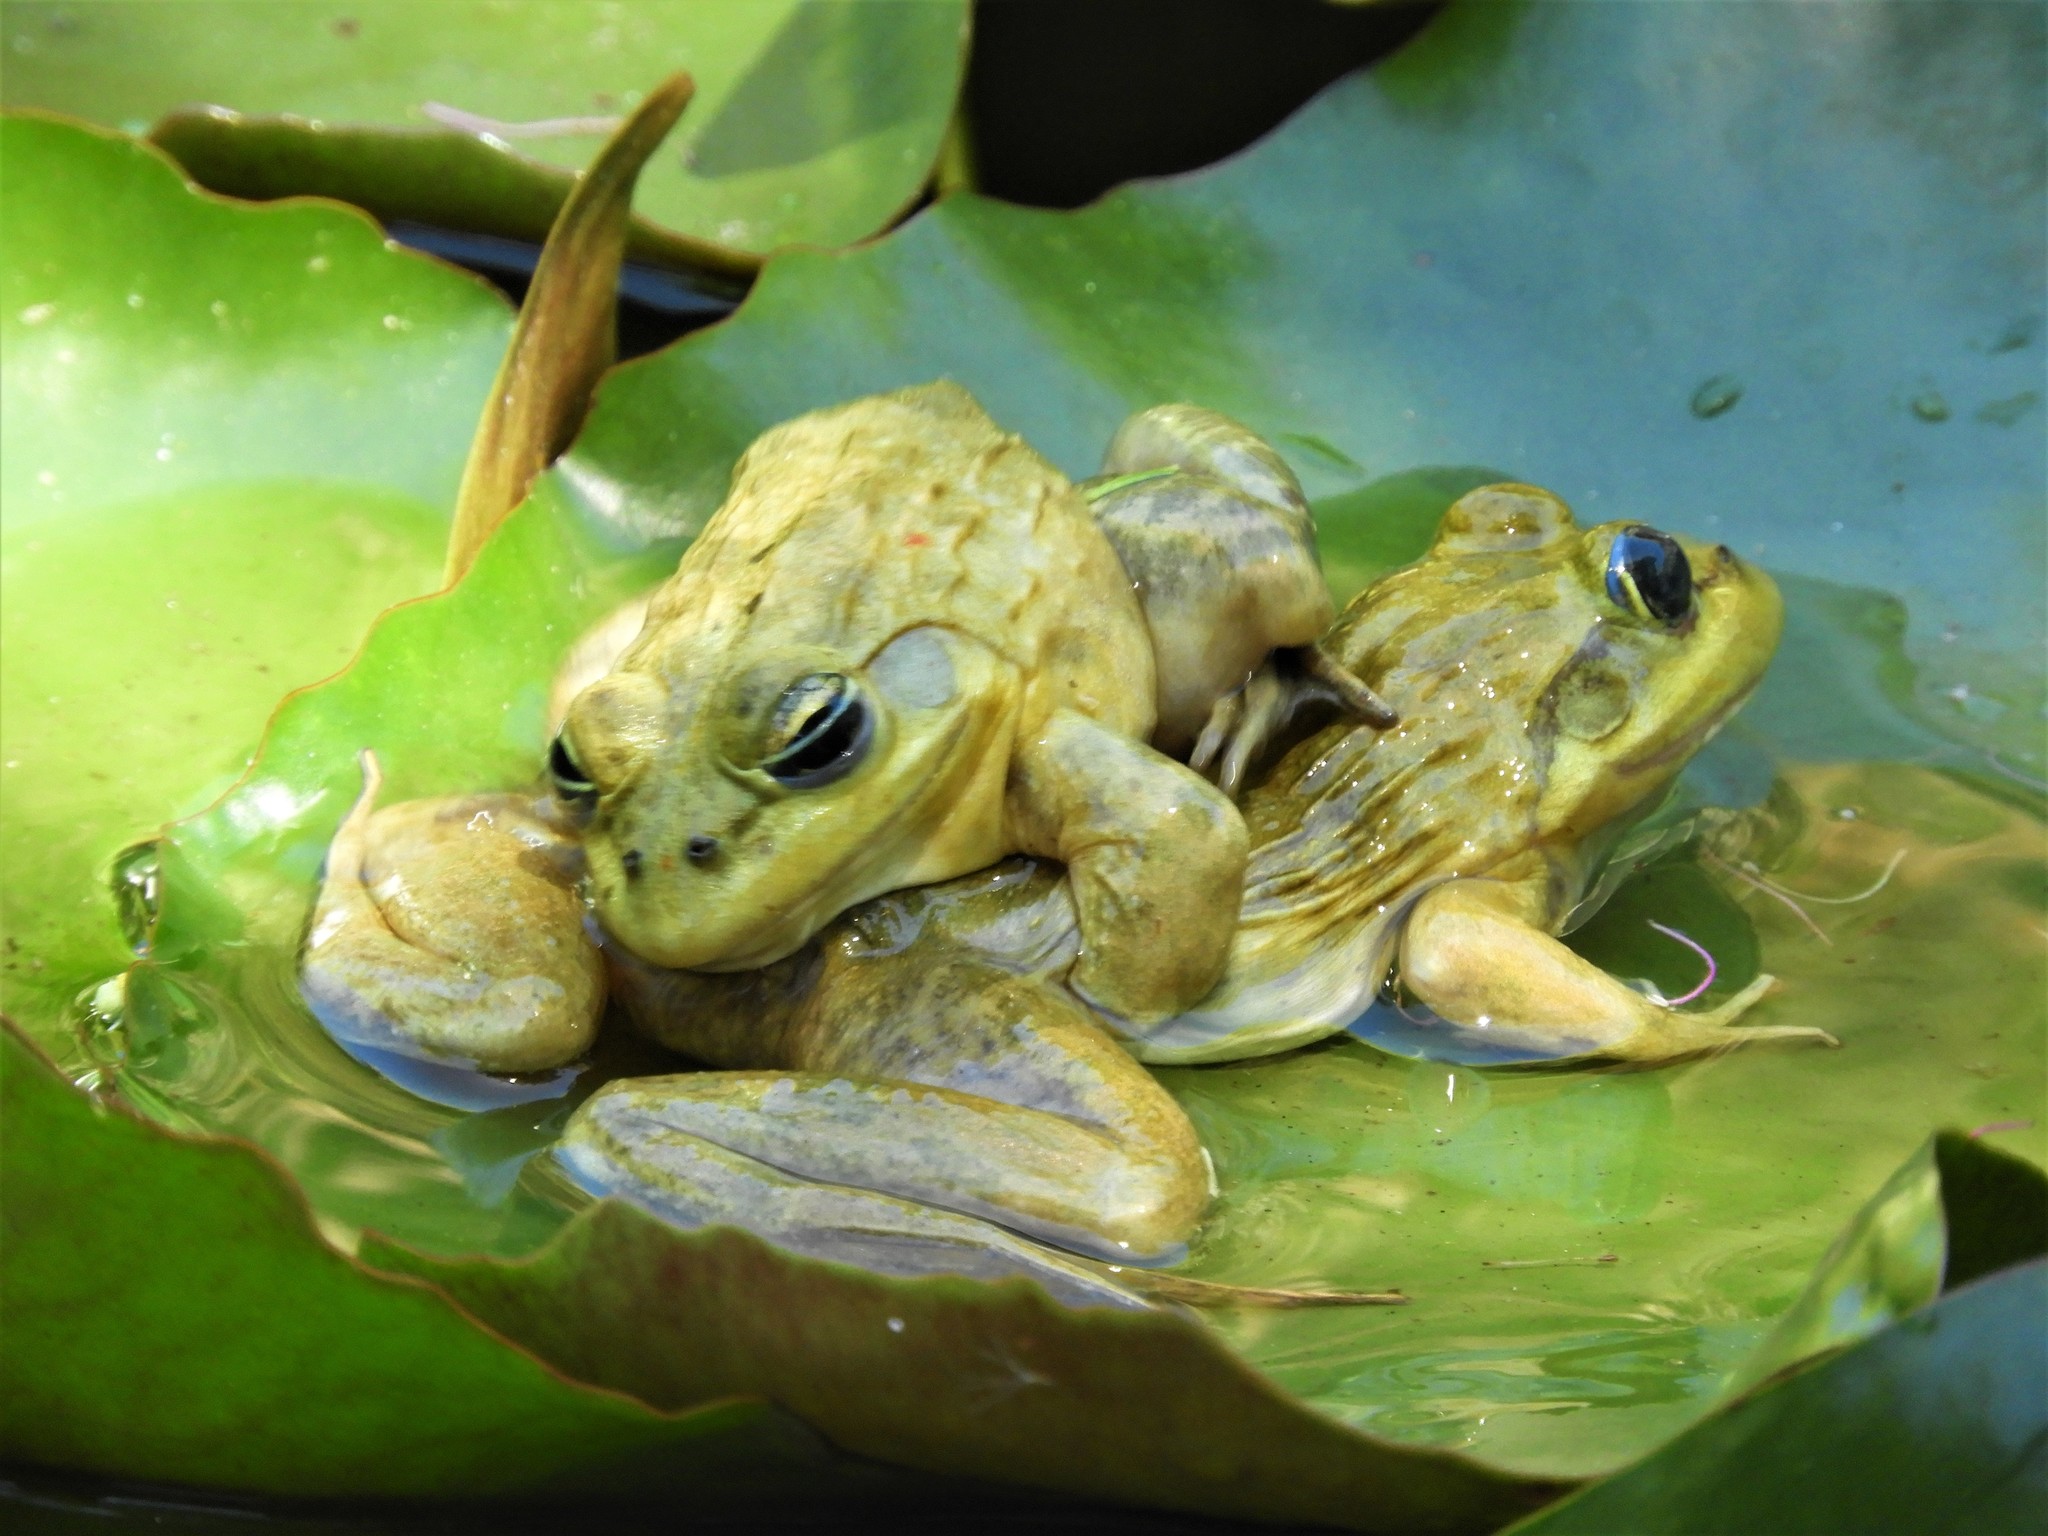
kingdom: Animalia
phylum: Chordata
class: Amphibia
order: Anura
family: Pyxicephalidae
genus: Amietia
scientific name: Amietia fuscigula
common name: Cape rana
